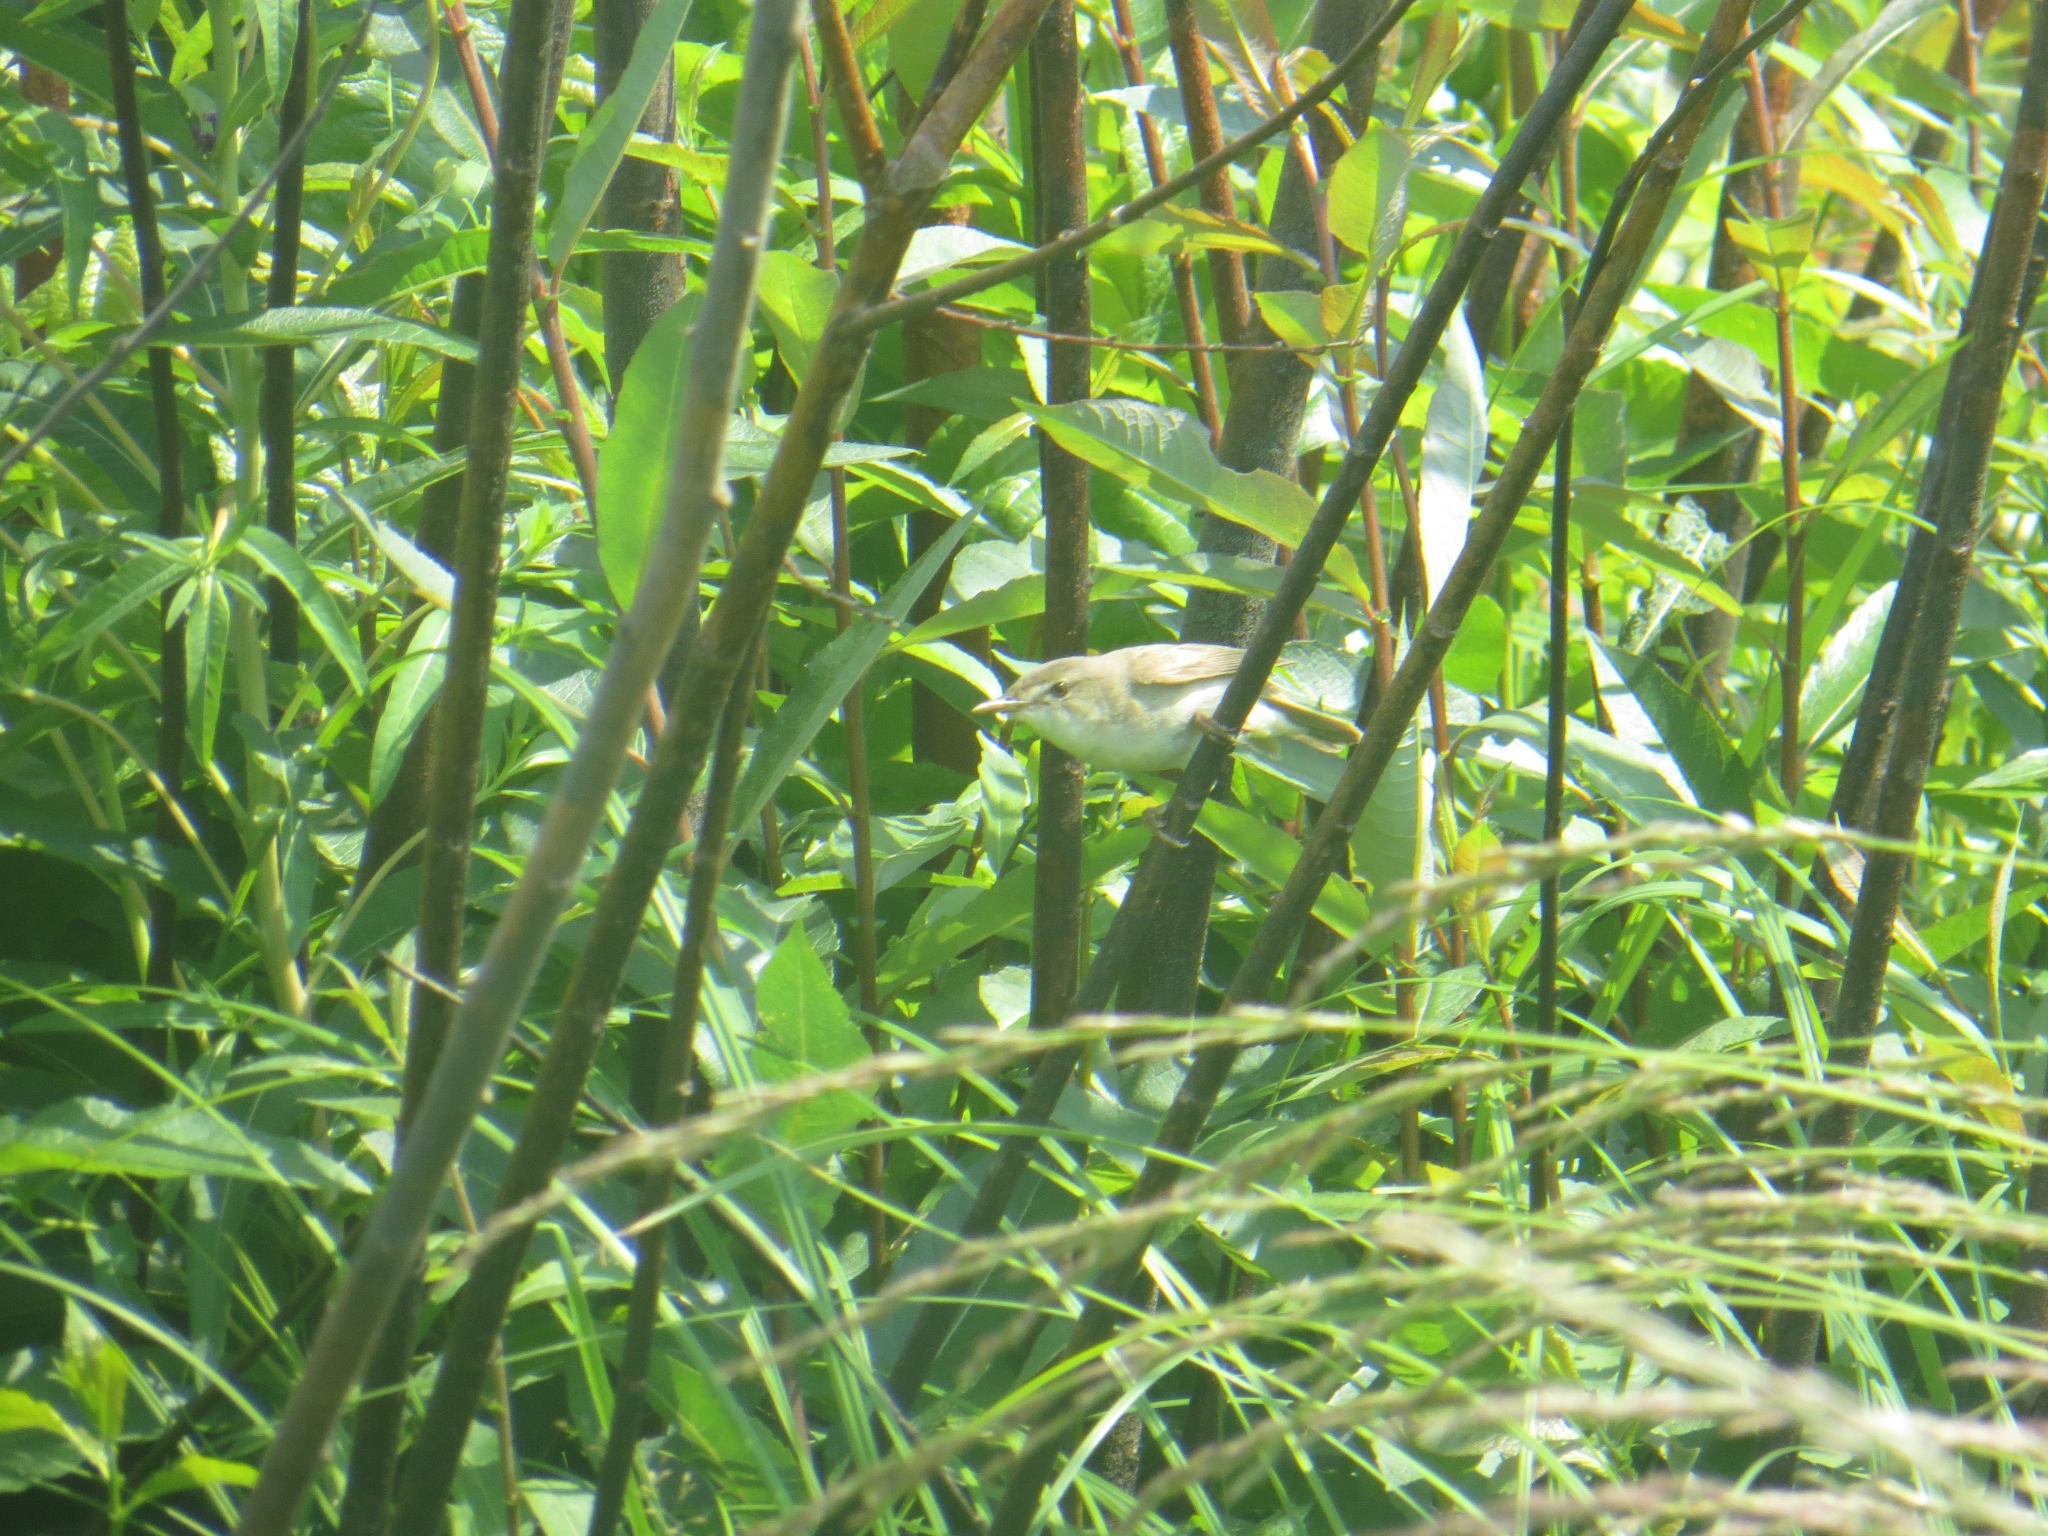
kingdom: Animalia
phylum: Chordata
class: Aves
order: Passeriformes
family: Acrocephalidae
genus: Acrocephalus
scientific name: Acrocephalus schoenobaenus
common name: Sedge warbler
